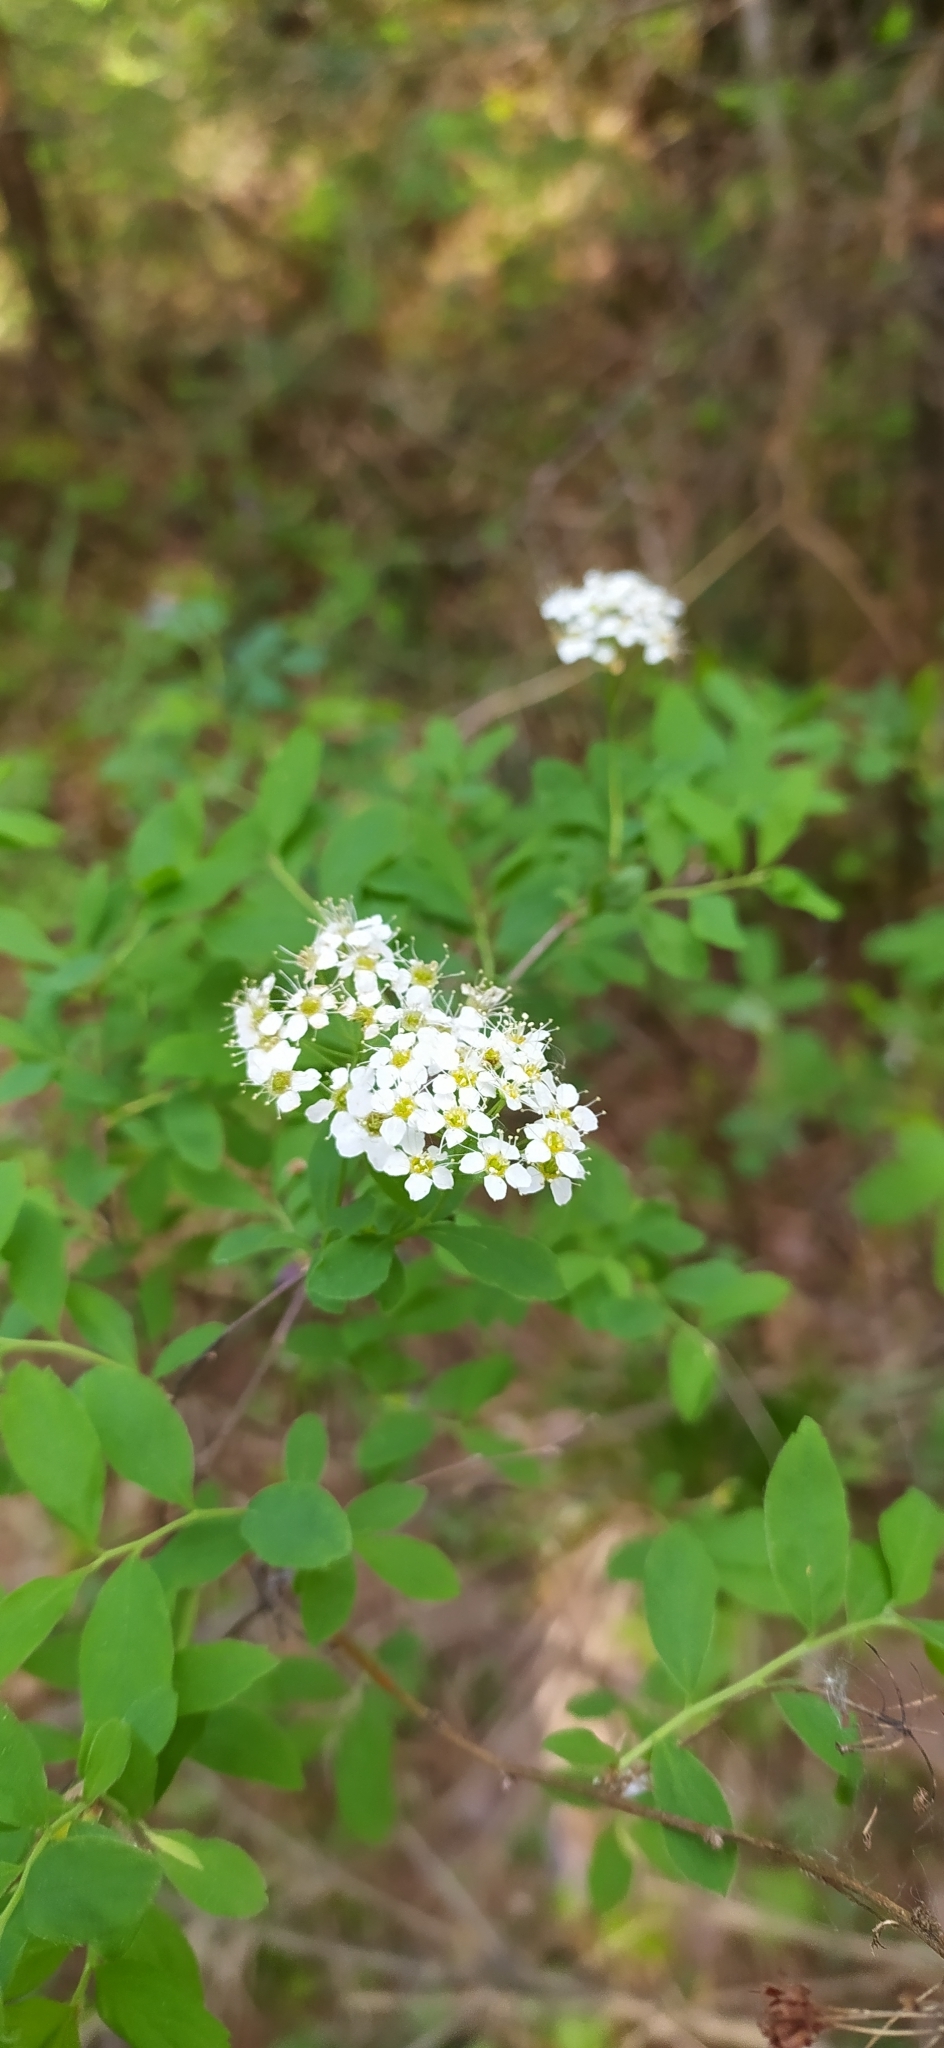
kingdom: Plantae
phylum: Tracheophyta
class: Magnoliopsida
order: Rosales
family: Rosaceae
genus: Spiraea
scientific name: Spiraea media
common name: Russian spiraea
